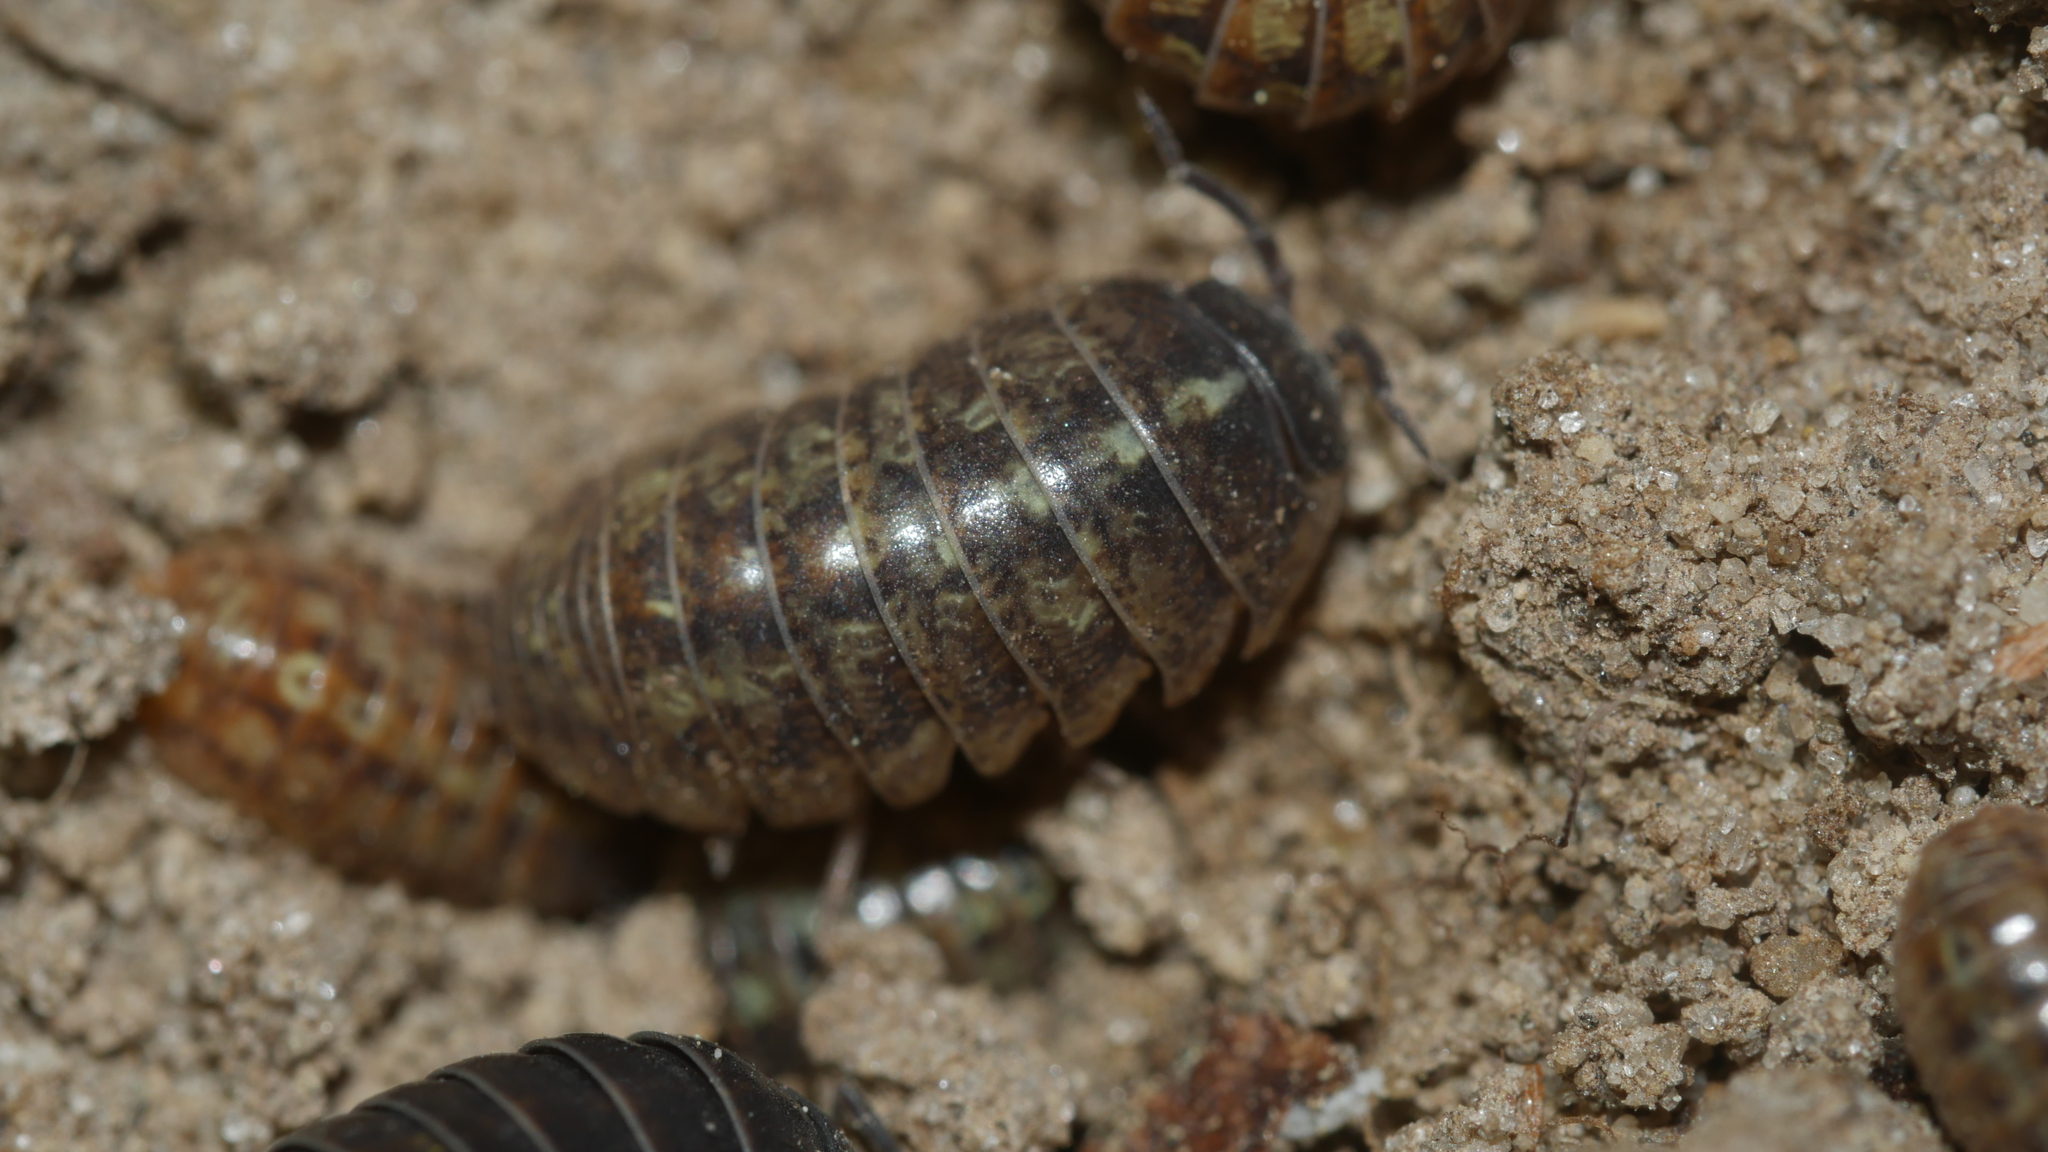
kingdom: Animalia
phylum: Arthropoda
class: Malacostraca
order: Isopoda
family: Armadillidiidae
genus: Armadillidium
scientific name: Armadillidium vulgare
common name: Common pill woodlouse
